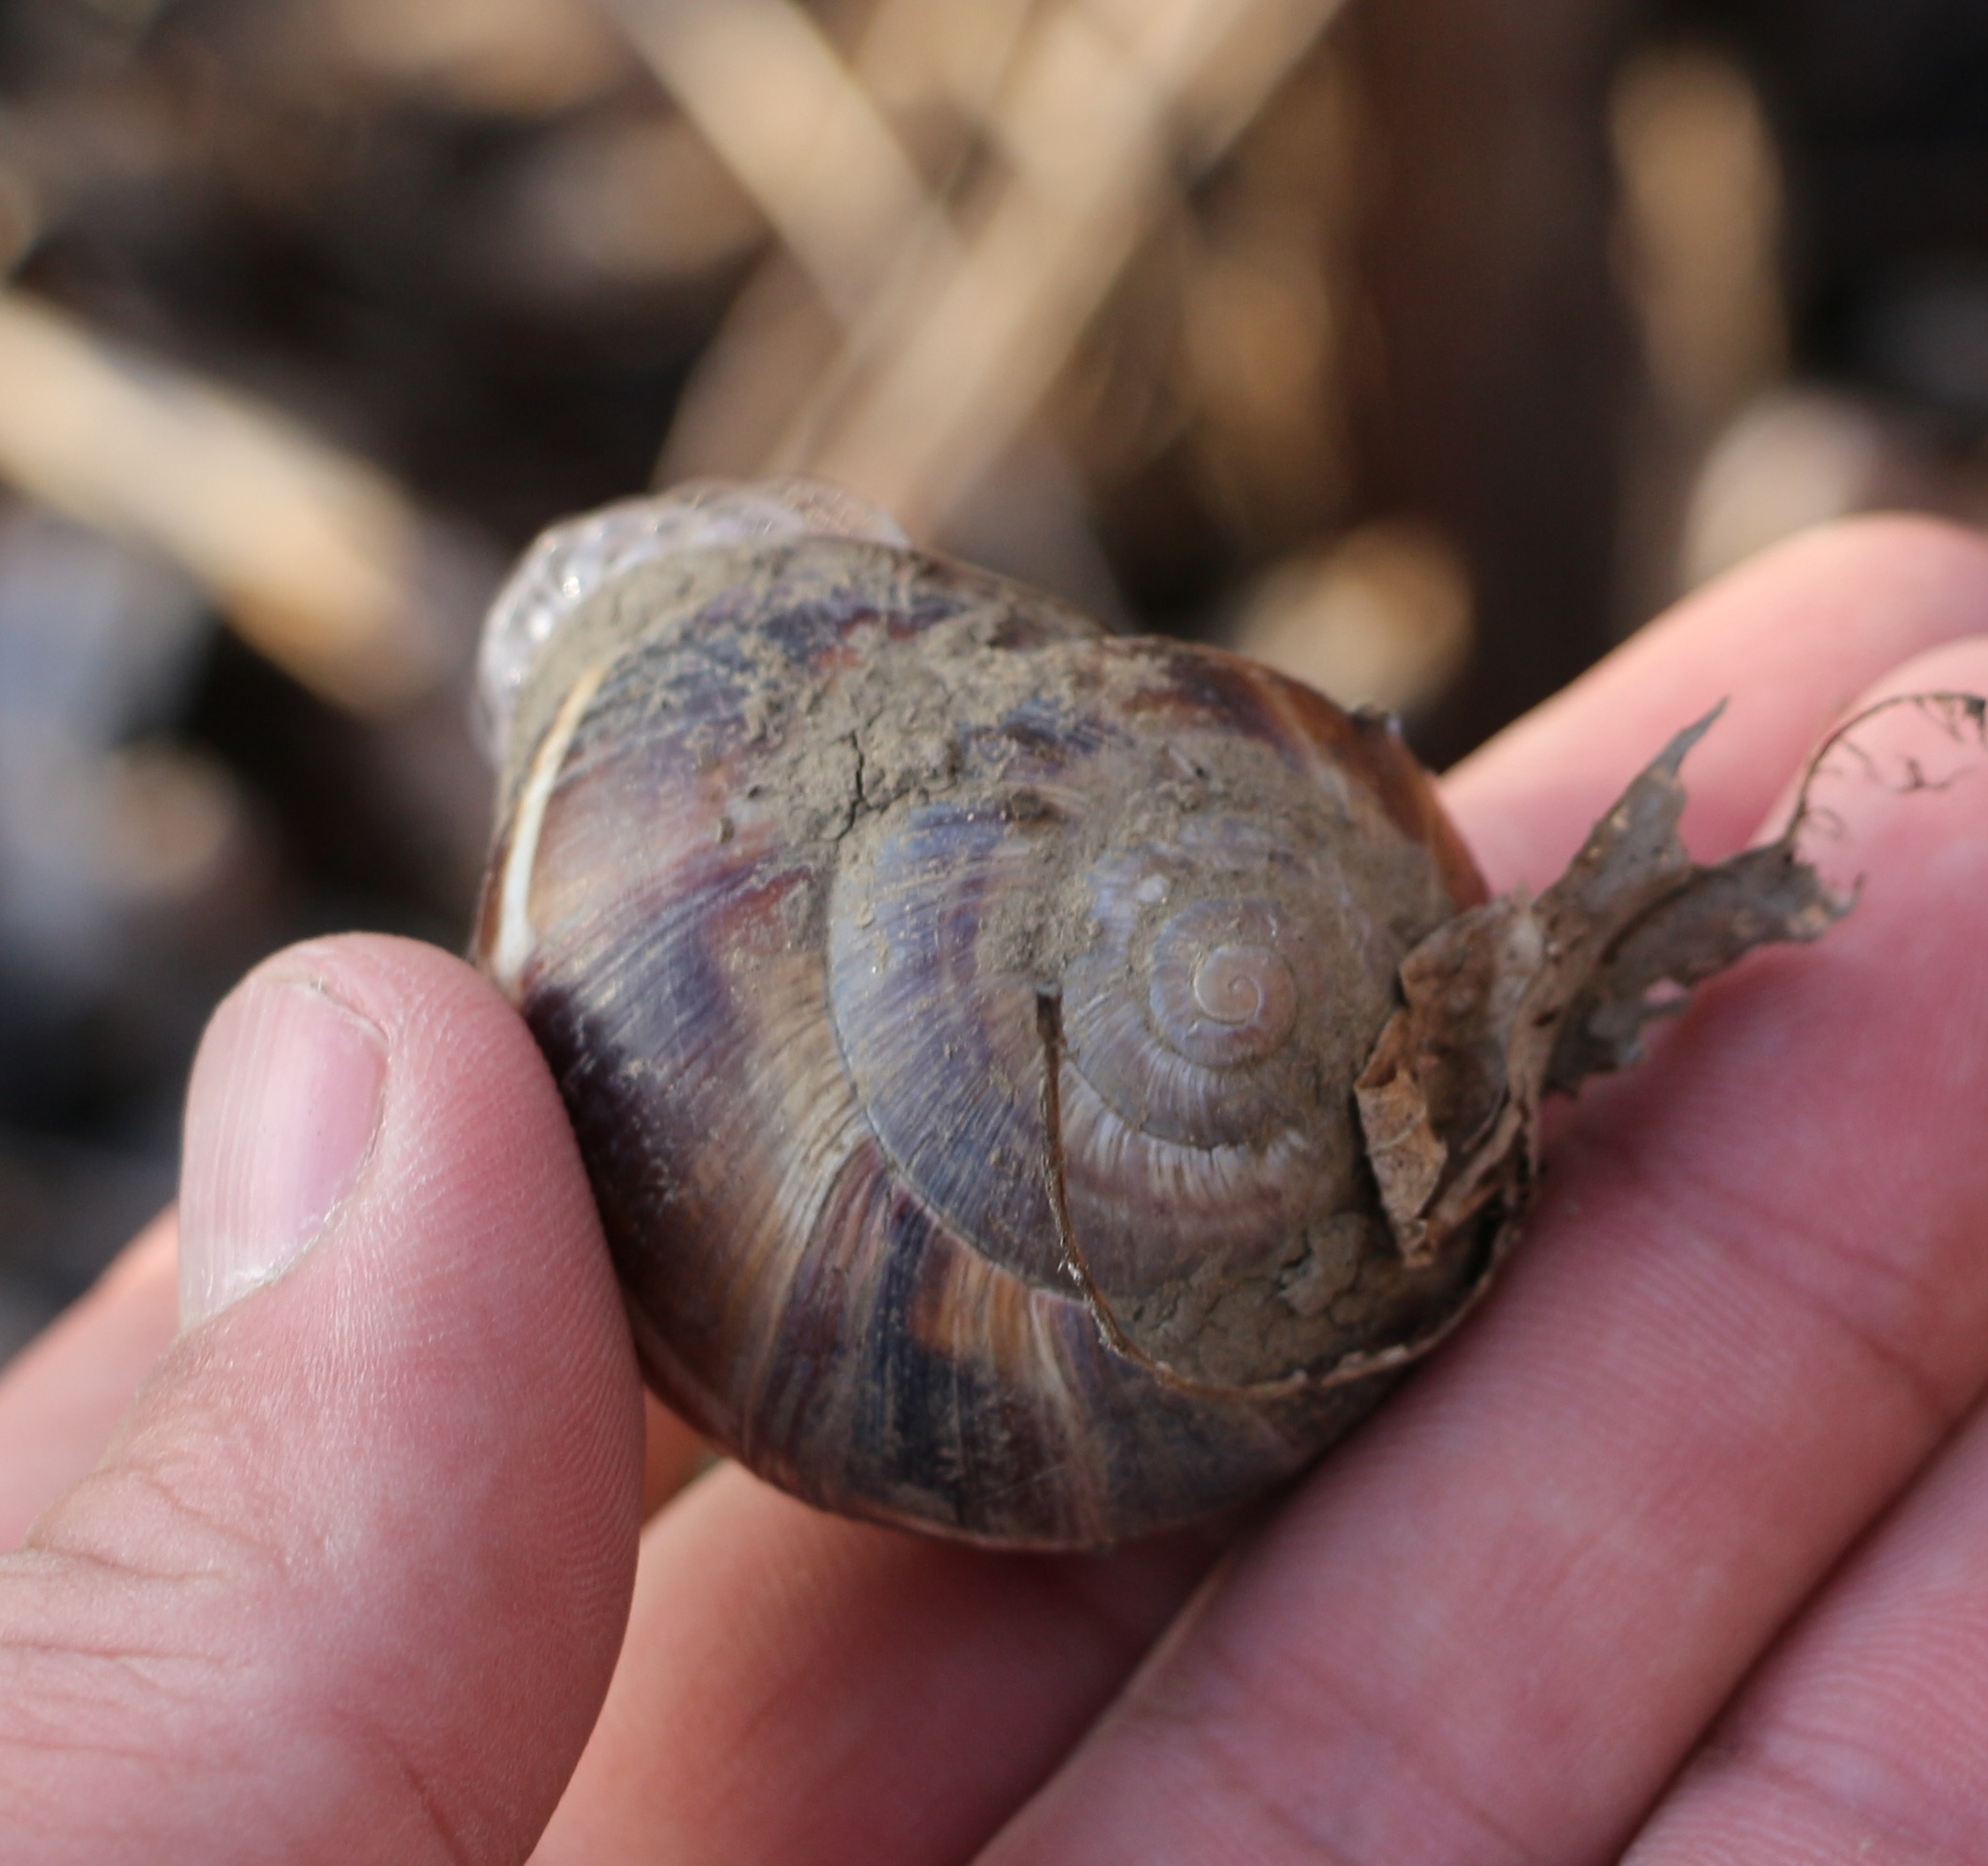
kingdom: Animalia
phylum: Mollusca
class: Gastropoda
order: Stylommatophora
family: Helicidae
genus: Helix
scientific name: Helix lucorum
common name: Turkish snail
